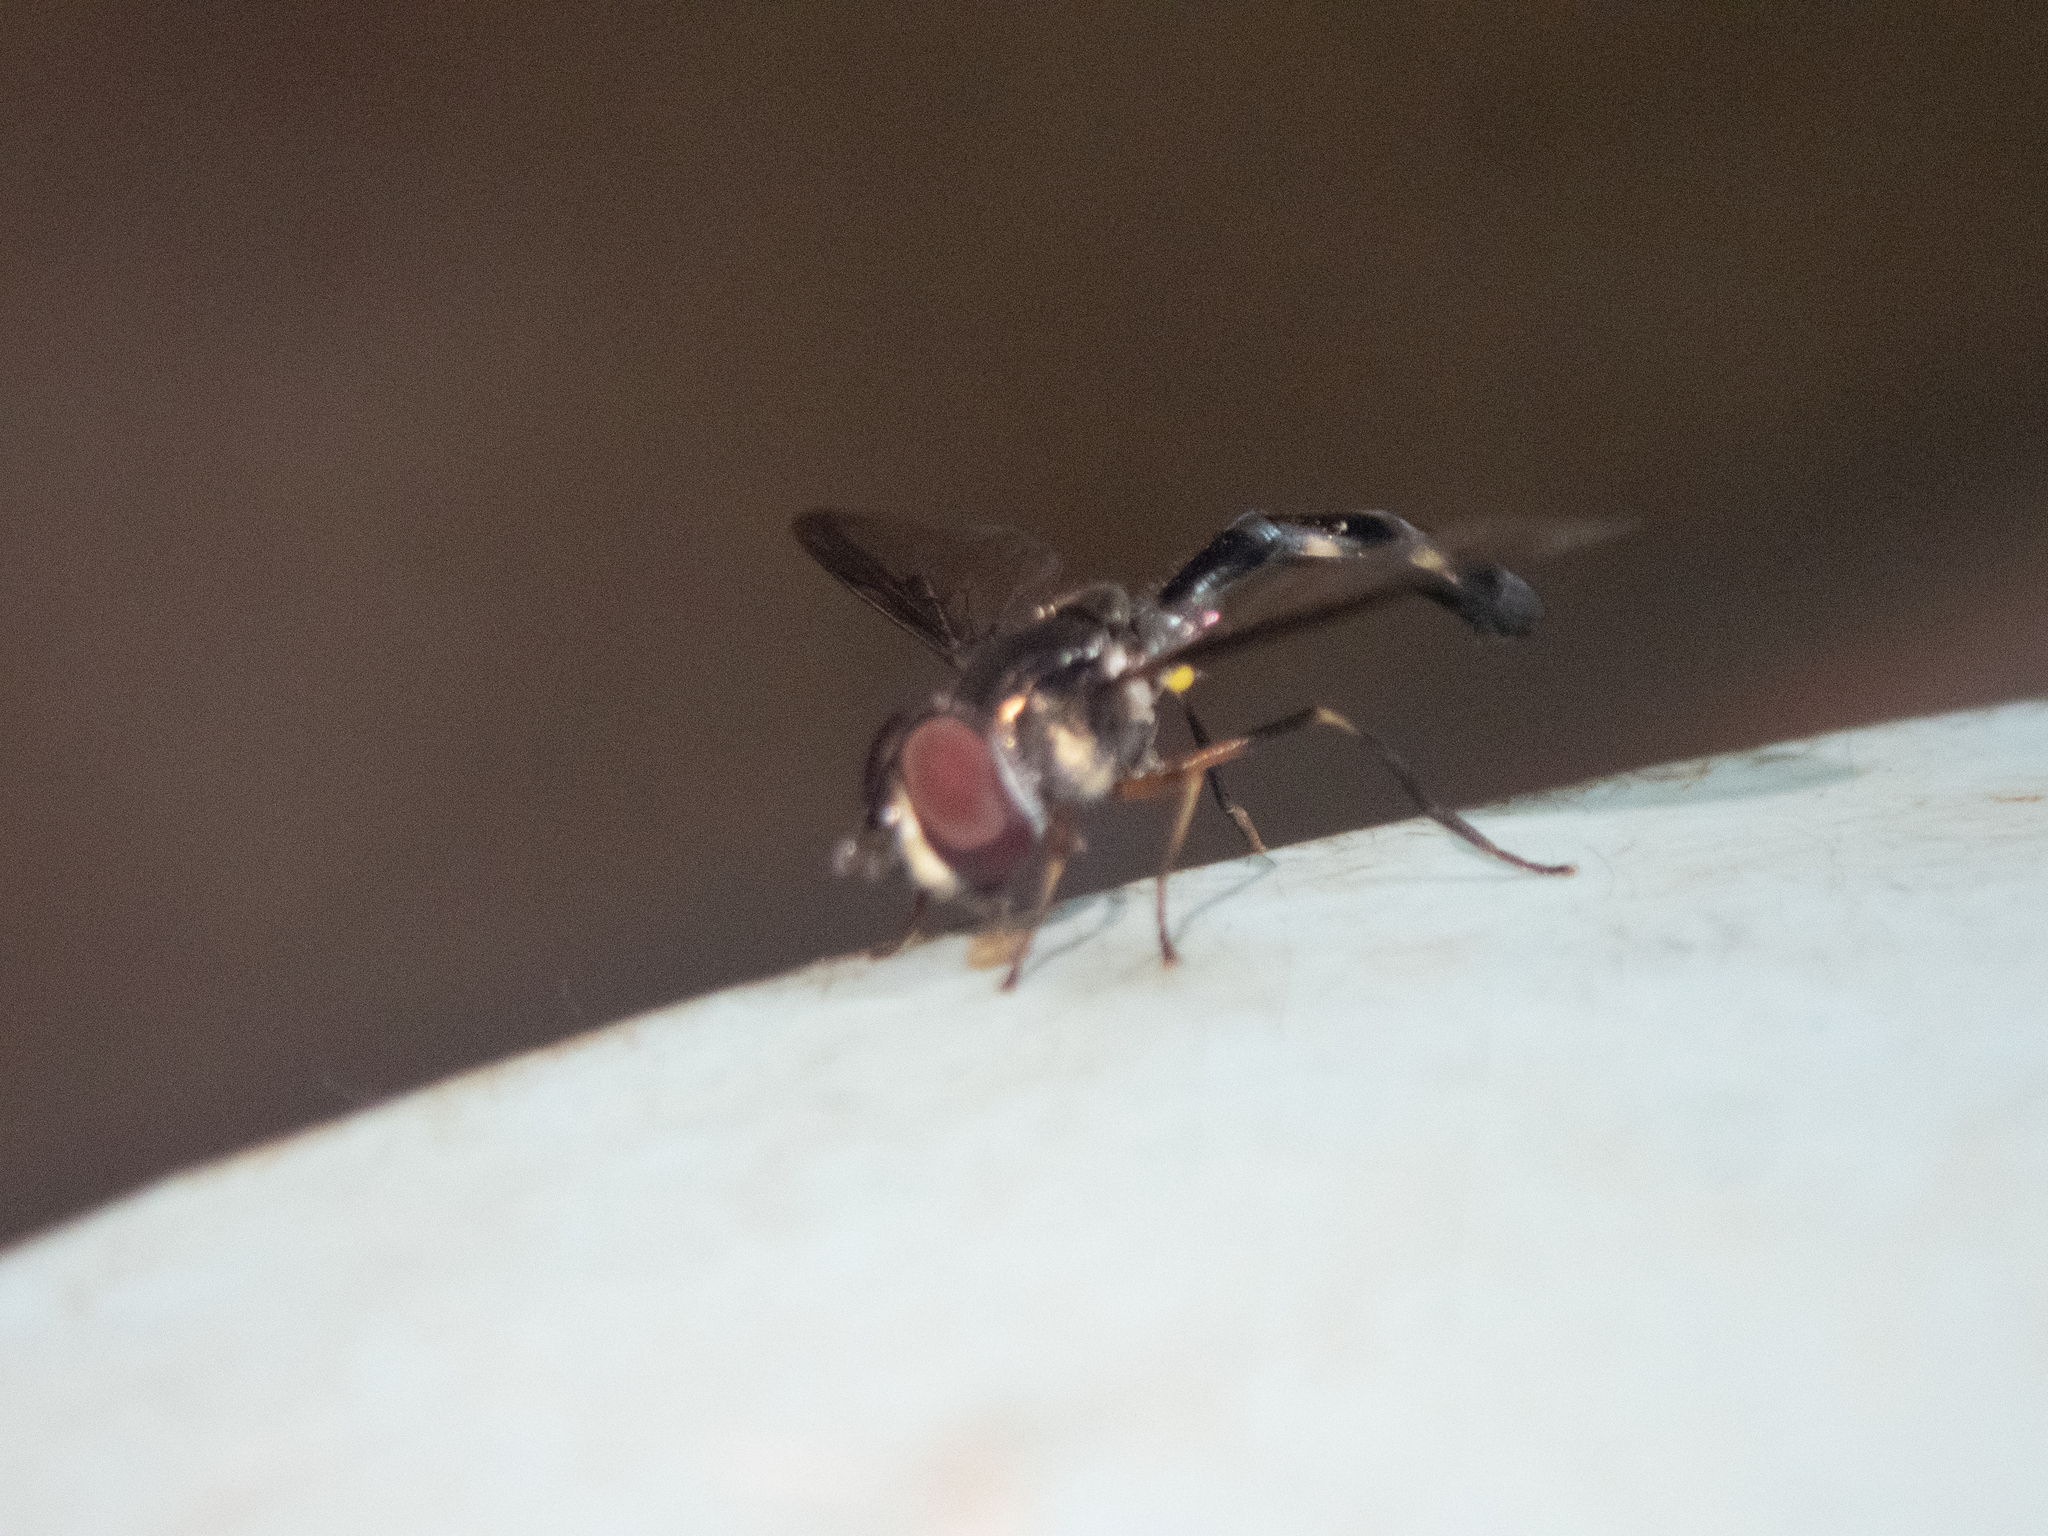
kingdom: Animalia
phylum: Arthropoda
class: Insecta
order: Diptera
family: Syrphidae
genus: Ocyptamus
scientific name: Ocyptamus costatus
